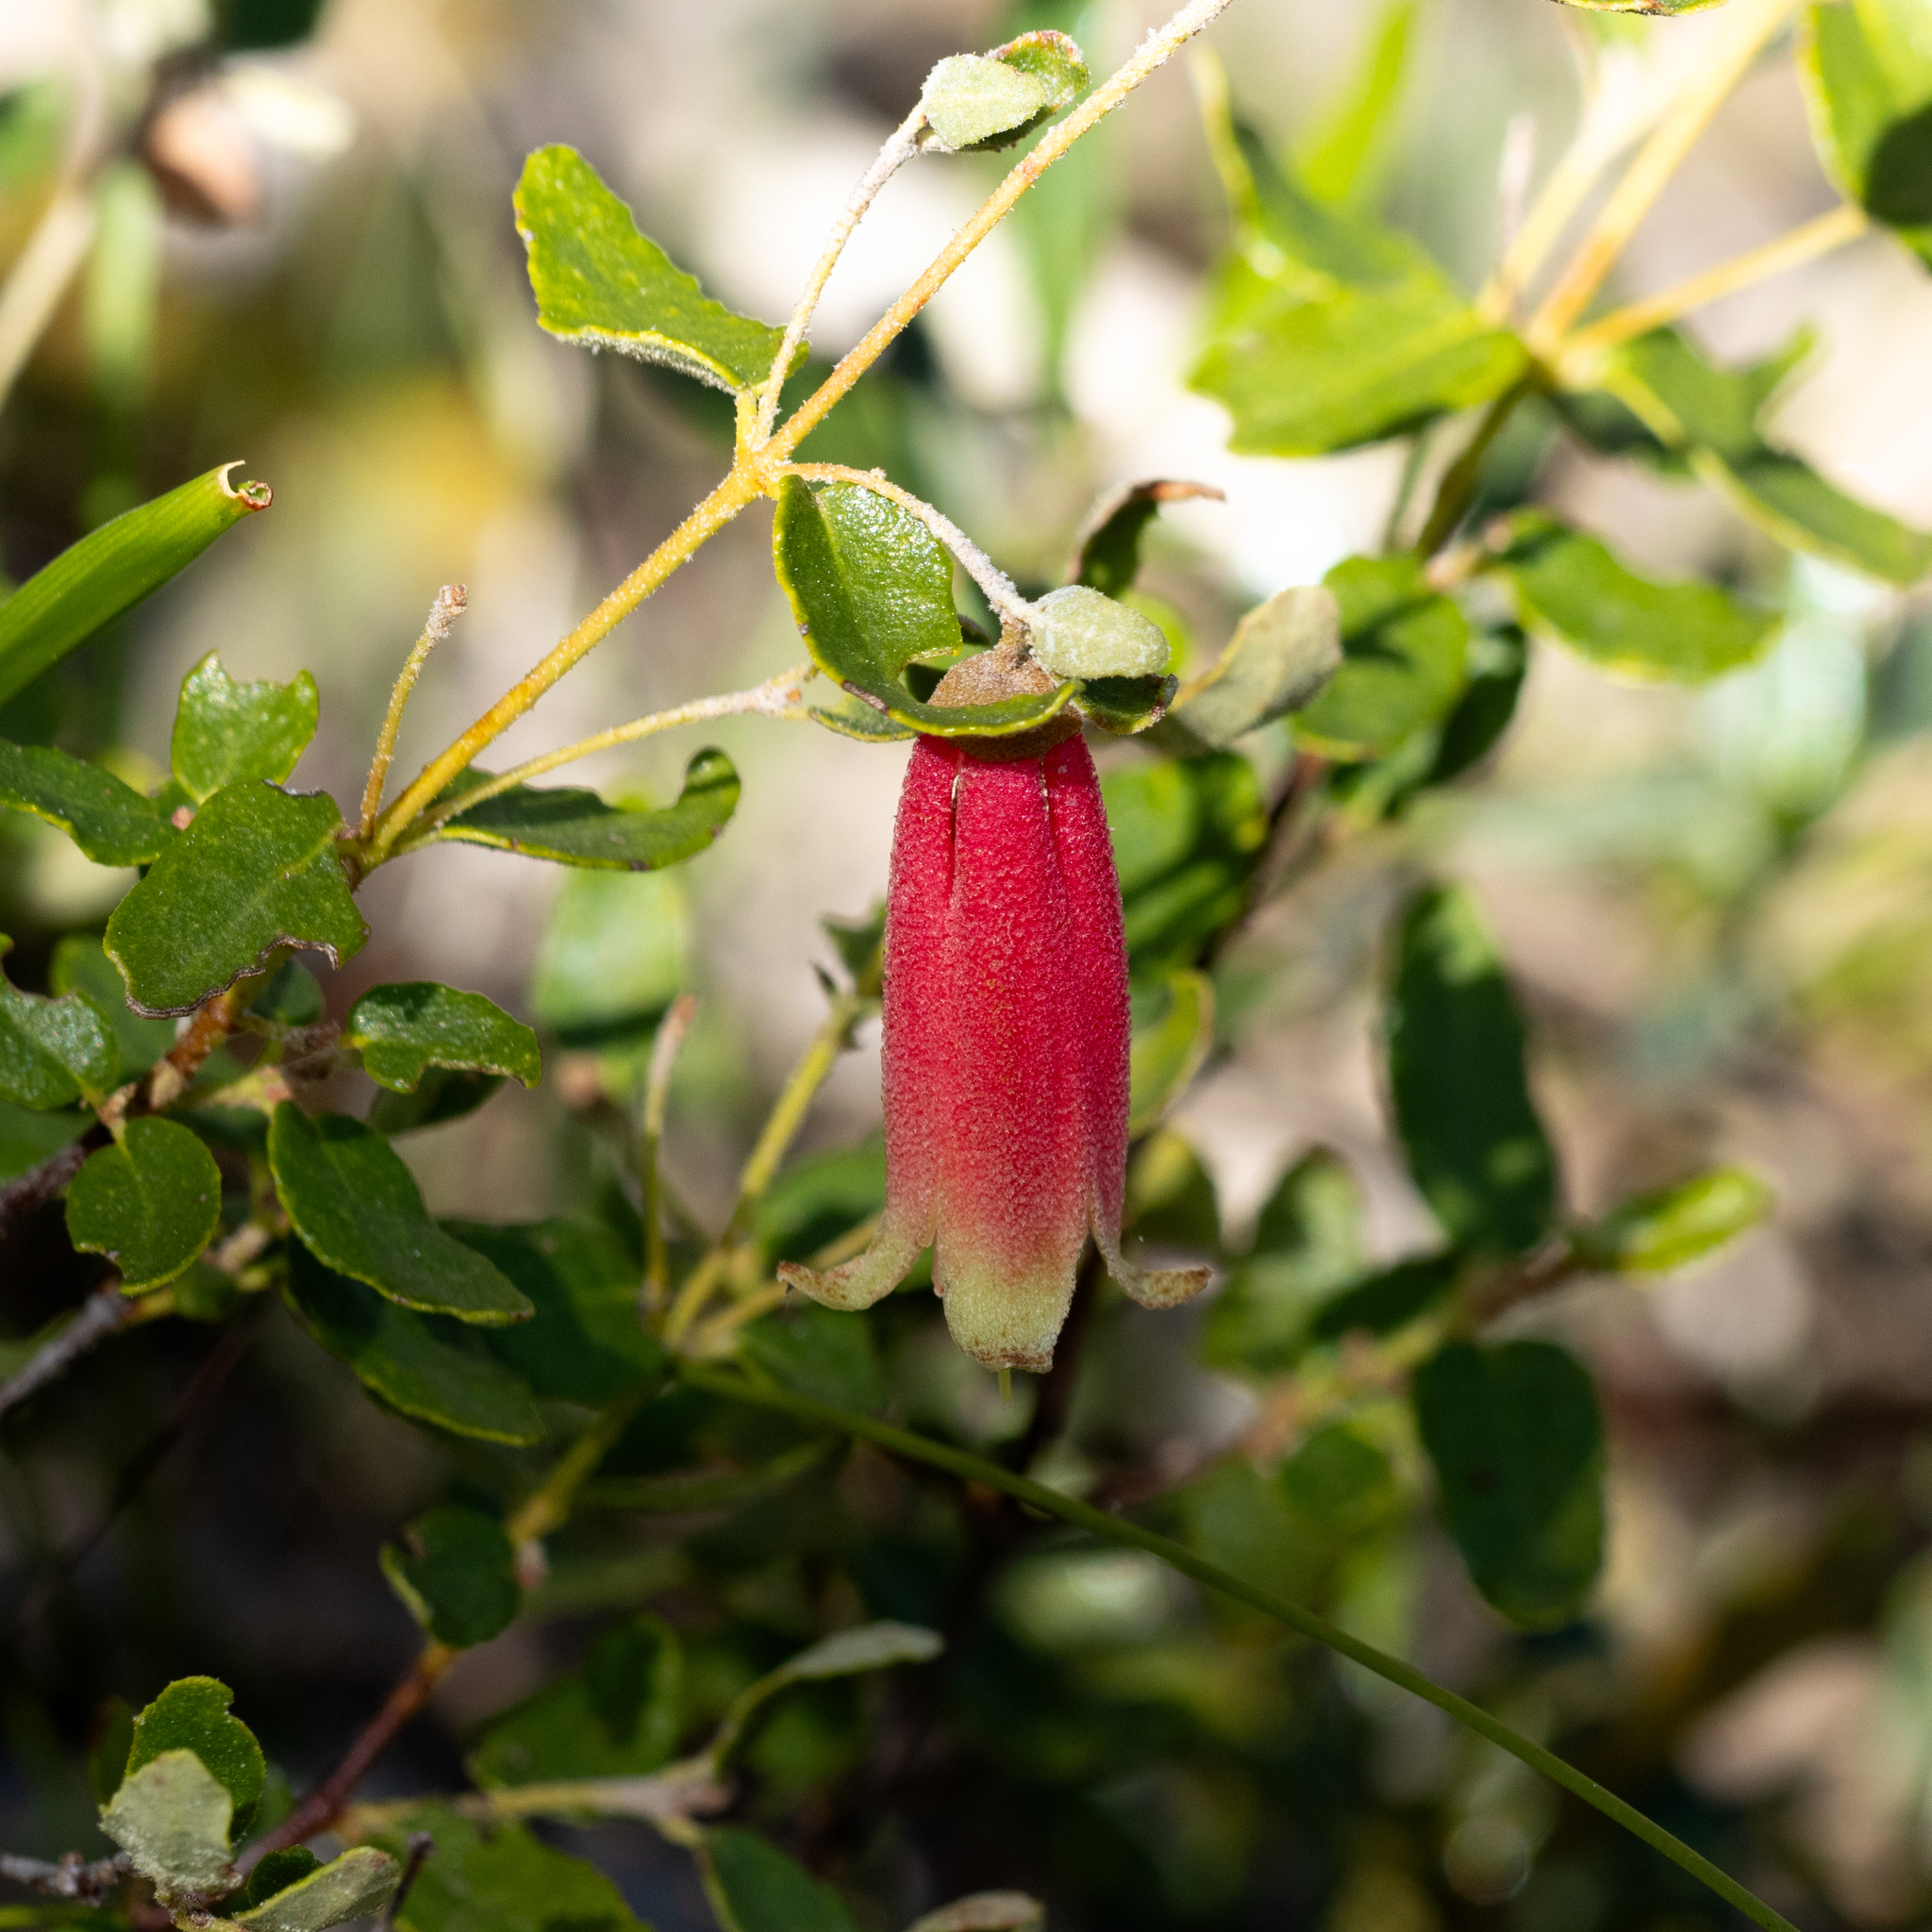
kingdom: Plantae
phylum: Tracheophyta
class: Magnoliopsida
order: Sapindales
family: Rutaceae
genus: Correa
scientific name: Correa reflexa
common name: Common correa
